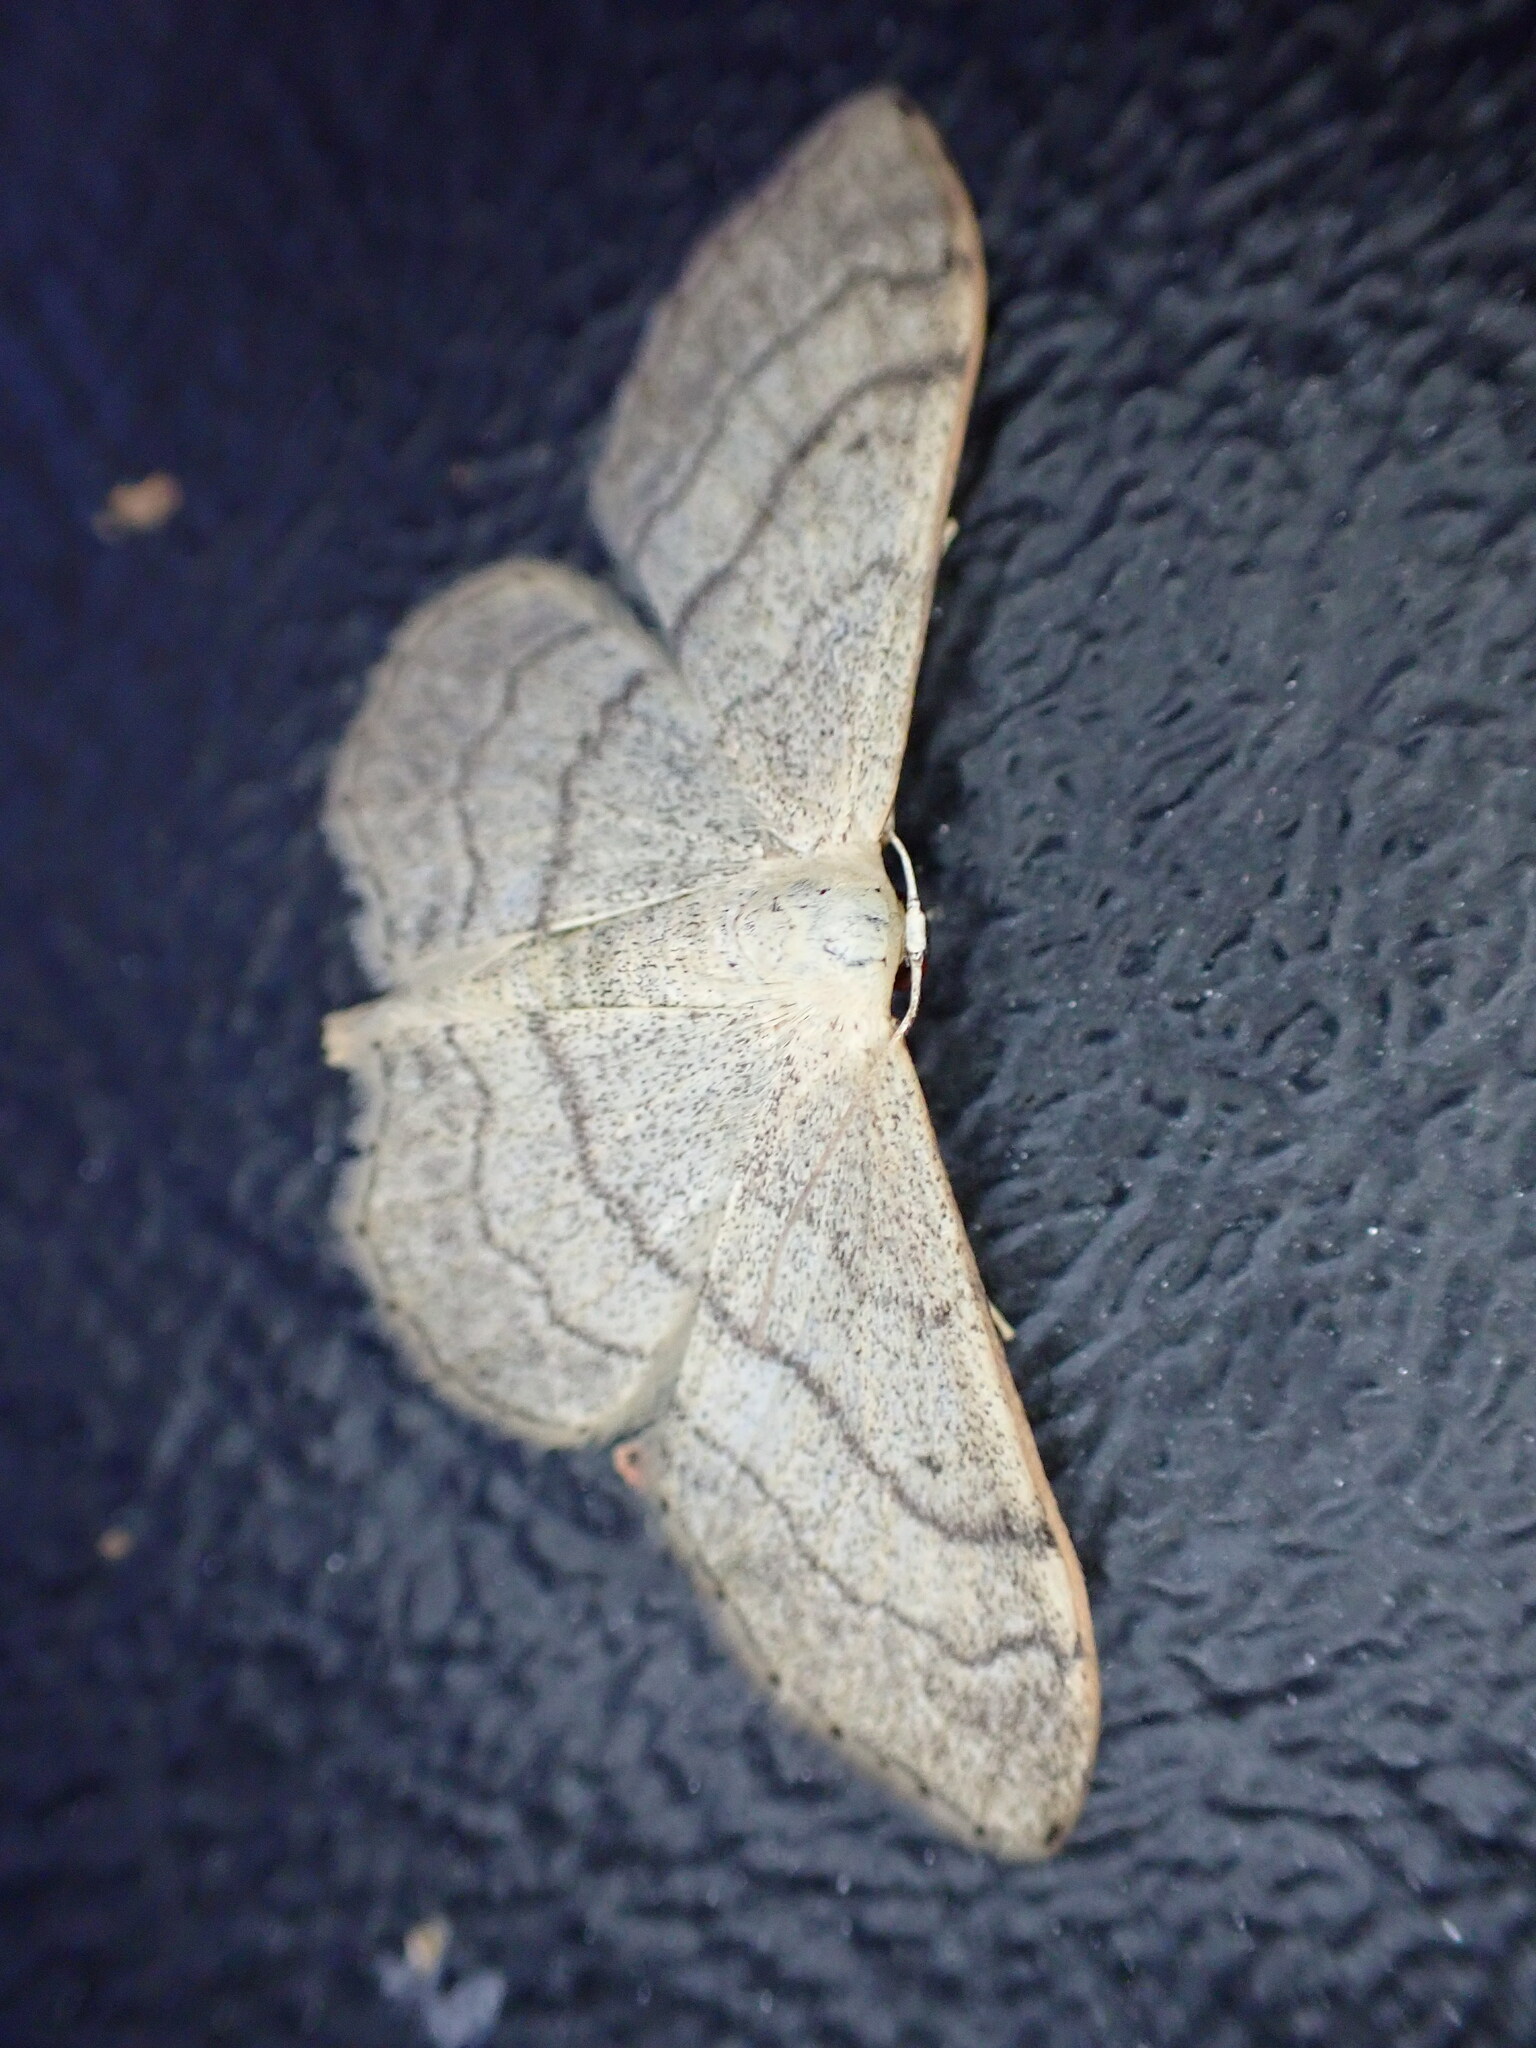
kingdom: Animalia
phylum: Arthropoda
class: Insecta
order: Lepidoptera
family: Geometridae
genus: Idaea
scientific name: Idaea aversata
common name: Riband wave
